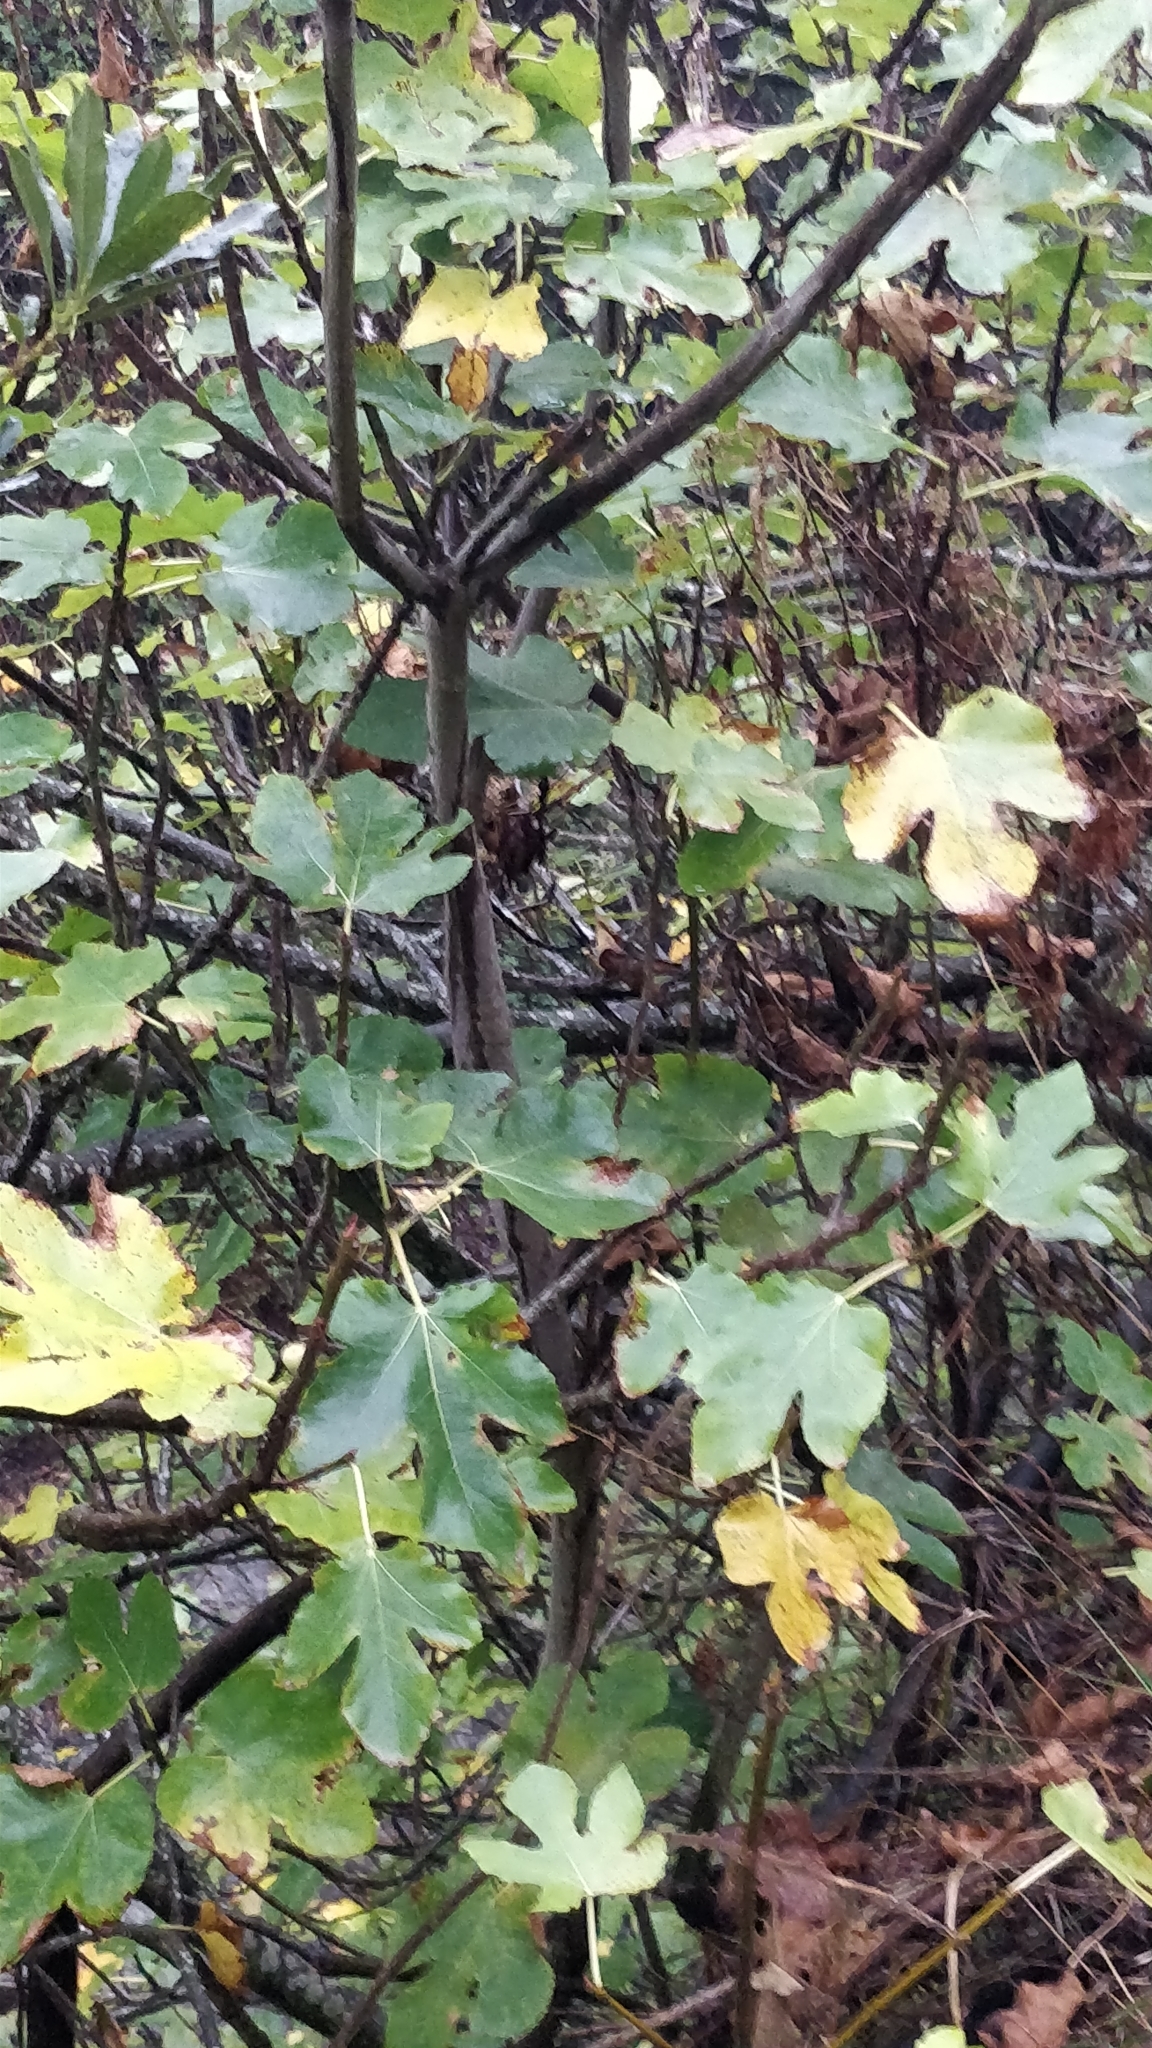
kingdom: Plantae
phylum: Tracheophyta
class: Magnoliopsida
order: Rosales
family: Moraceae
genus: Ficus
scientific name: Ficus carica
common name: Fig
